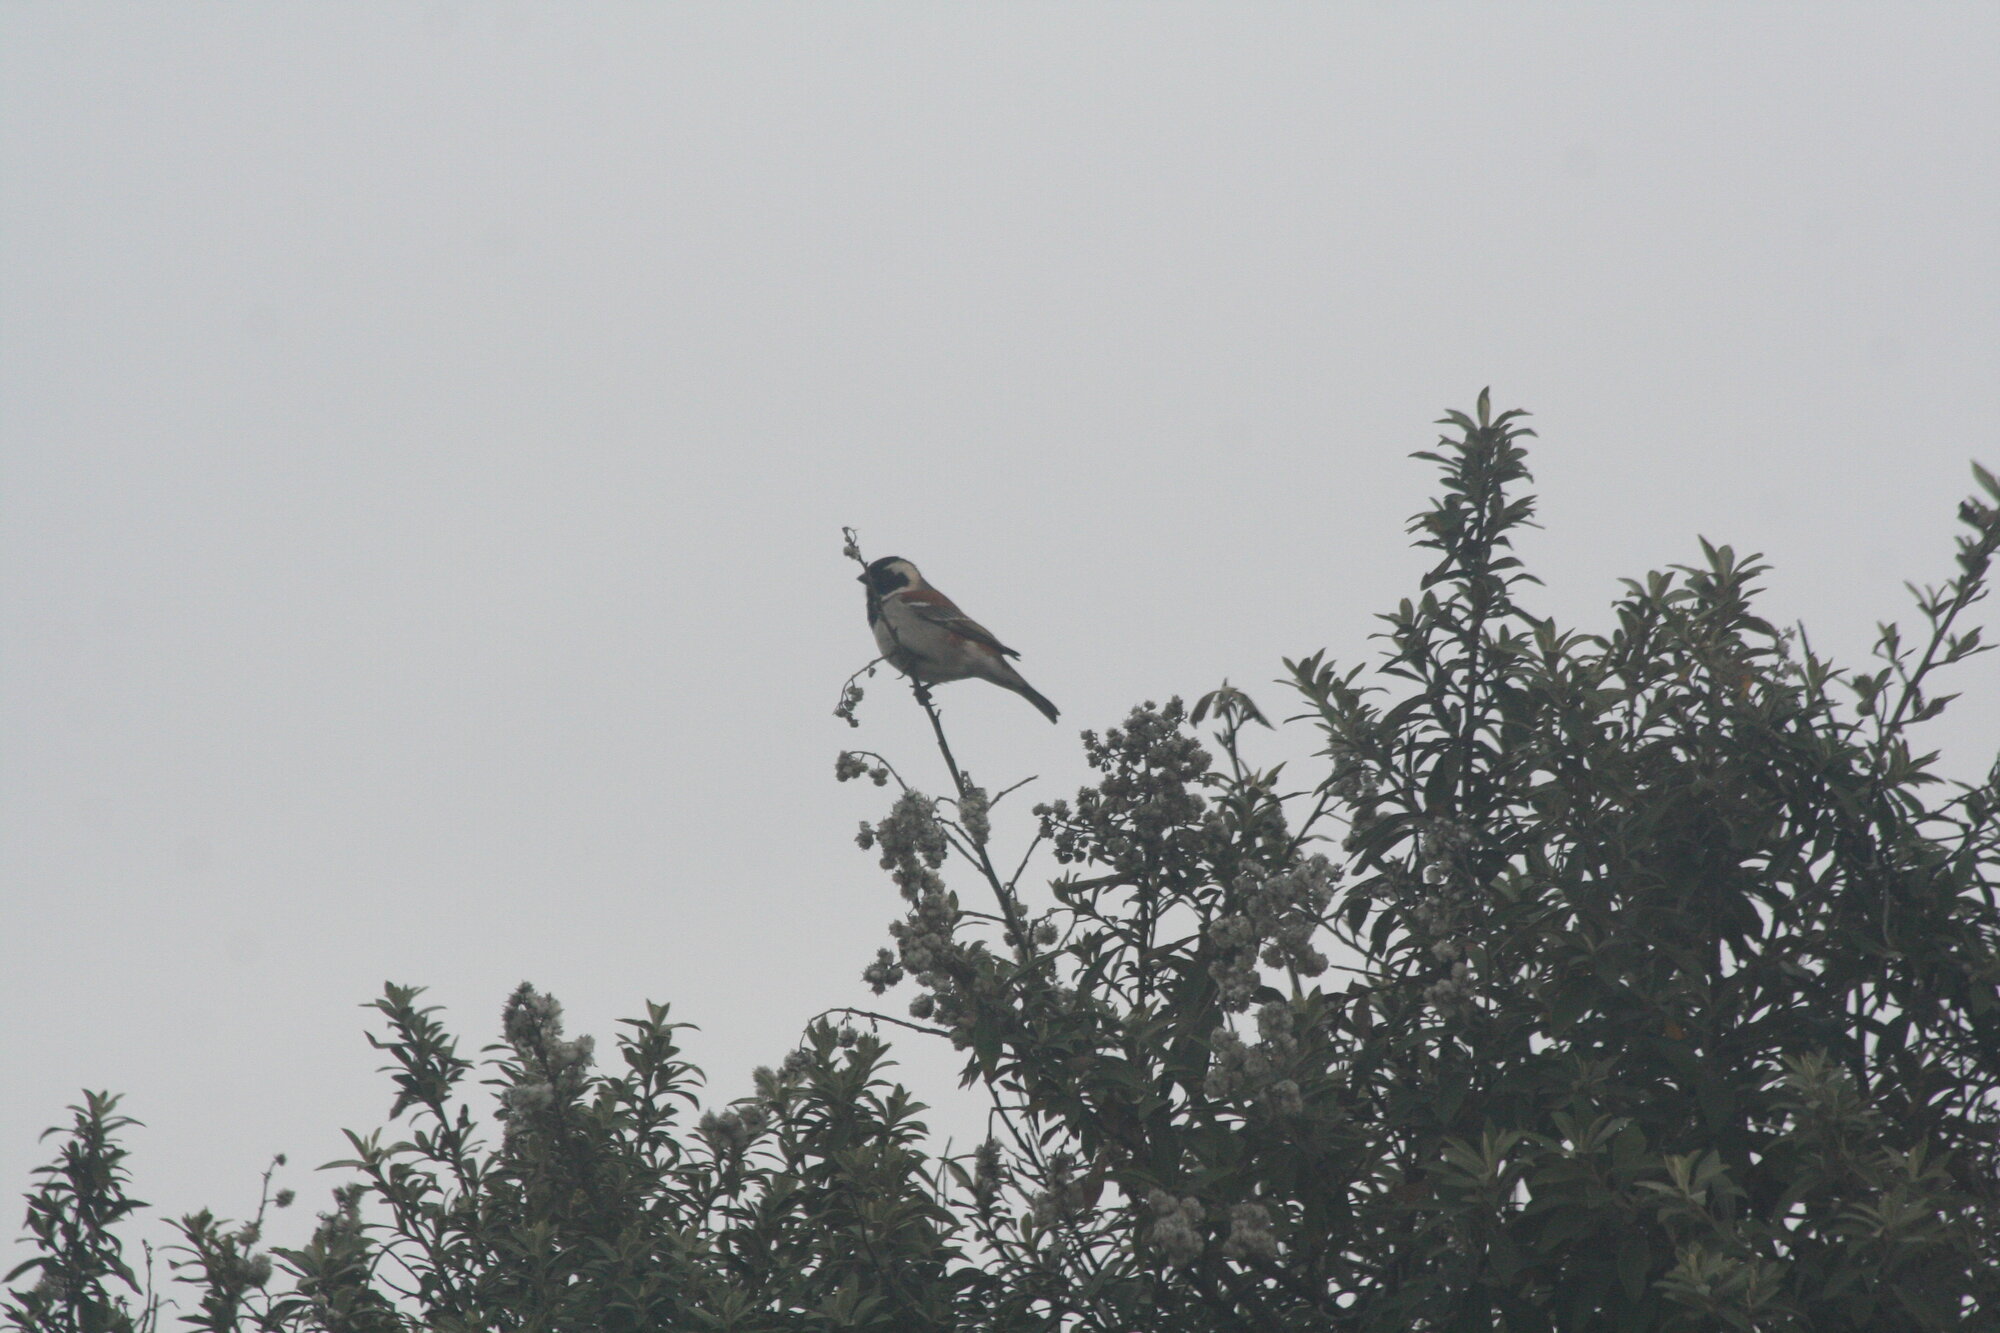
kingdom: Animalia
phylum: Chordata
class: Aves
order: Passeriformes
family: Passeridae
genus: Passer
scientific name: Passer melanurus
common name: Cape sparrow
